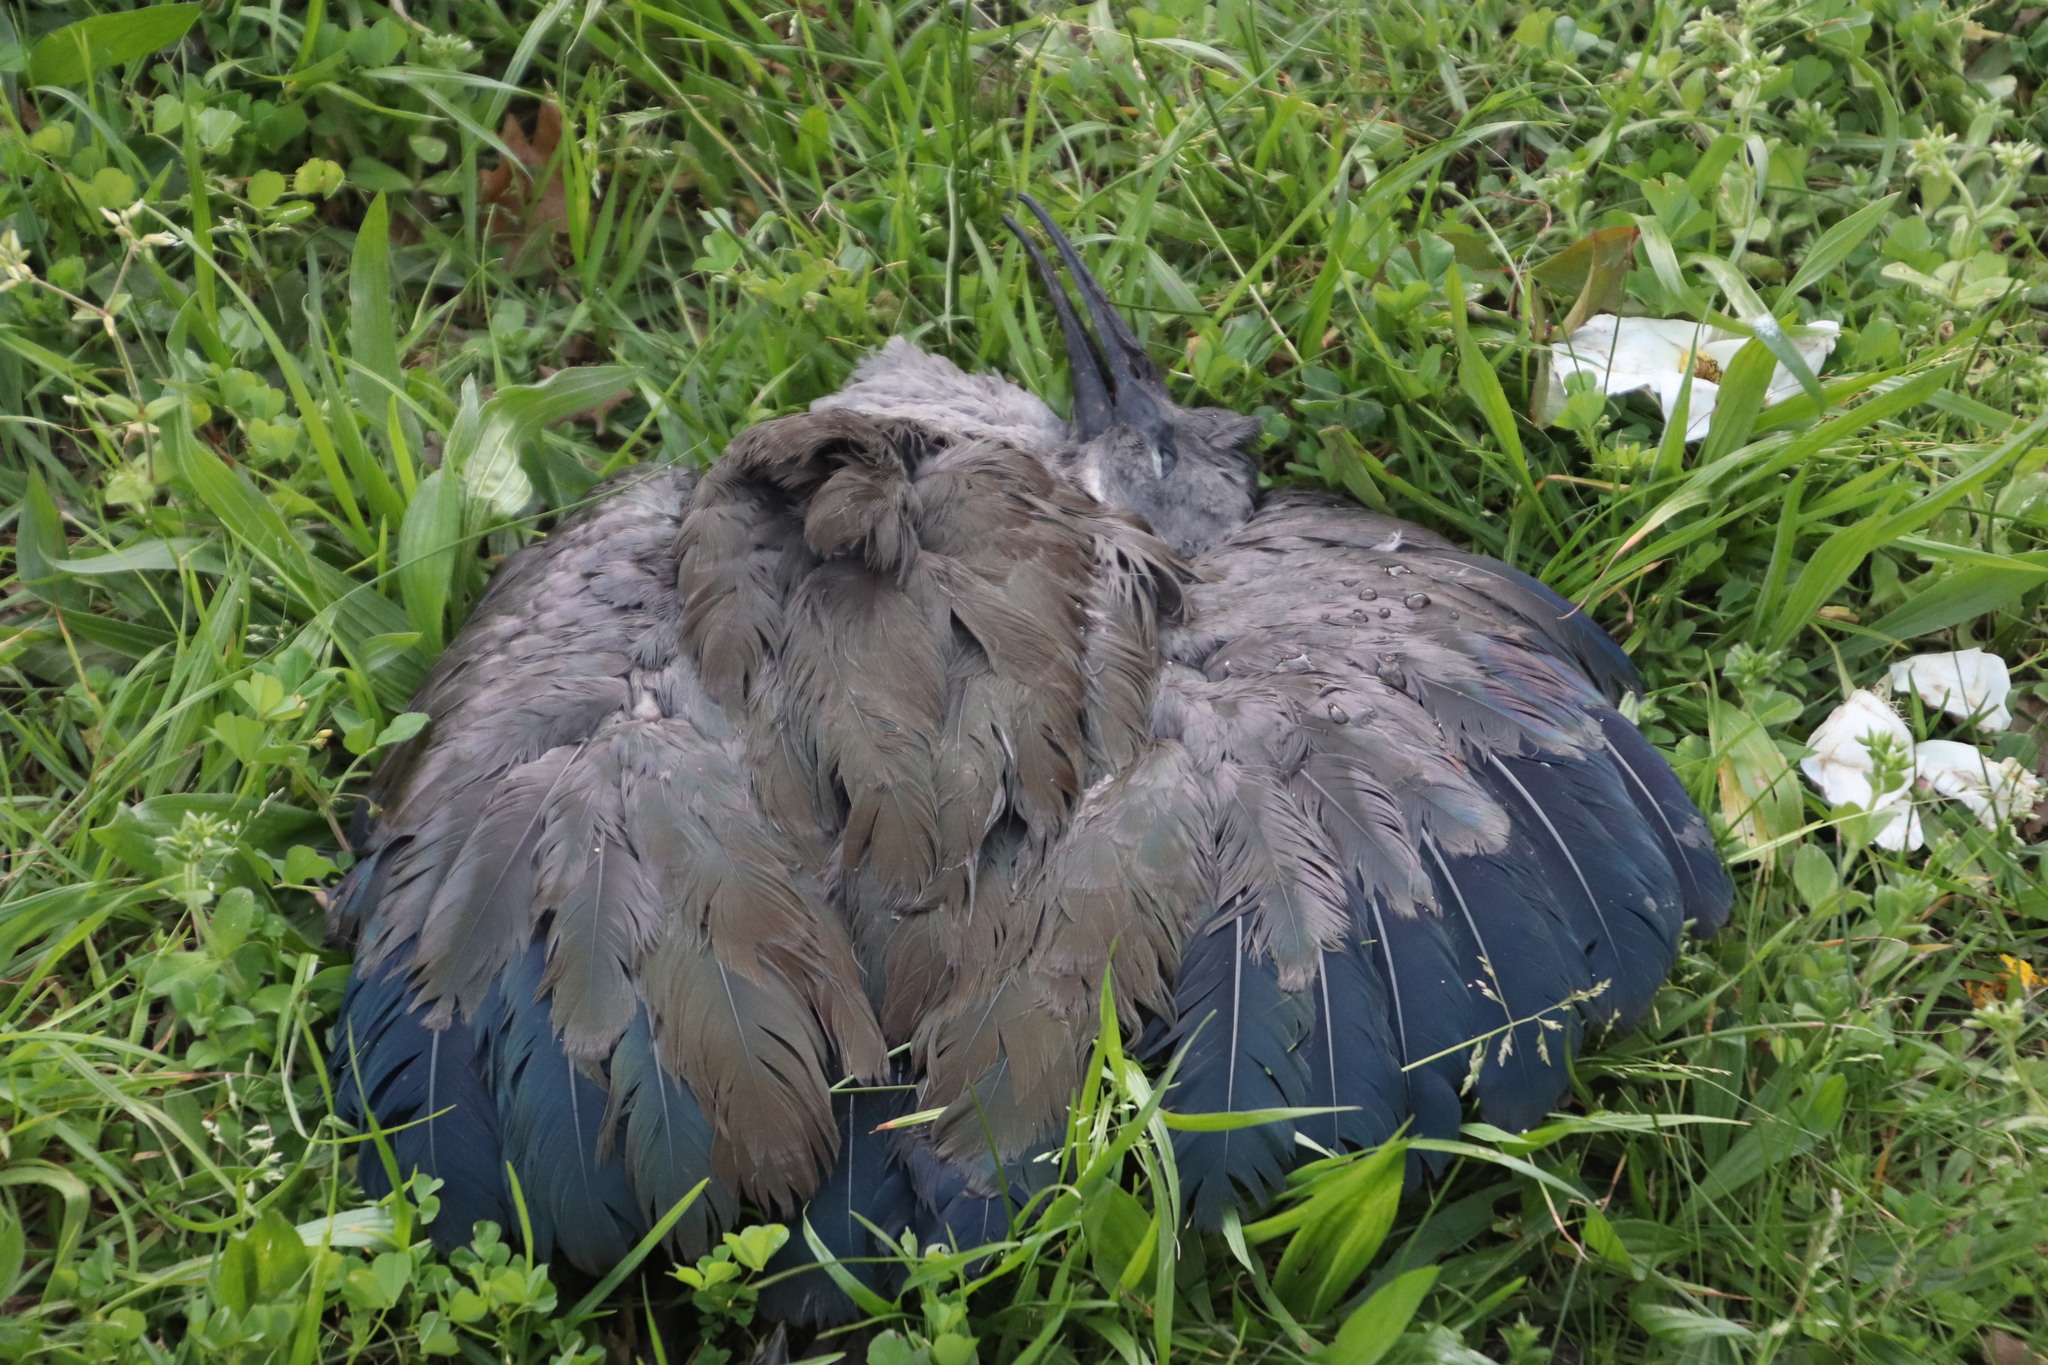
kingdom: Animalia
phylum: Chordata
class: Aves
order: Pelecaniformes
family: Threskiornithidae
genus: Bostrychia
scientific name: Bostrychia hagedash
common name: Hadada ibis
